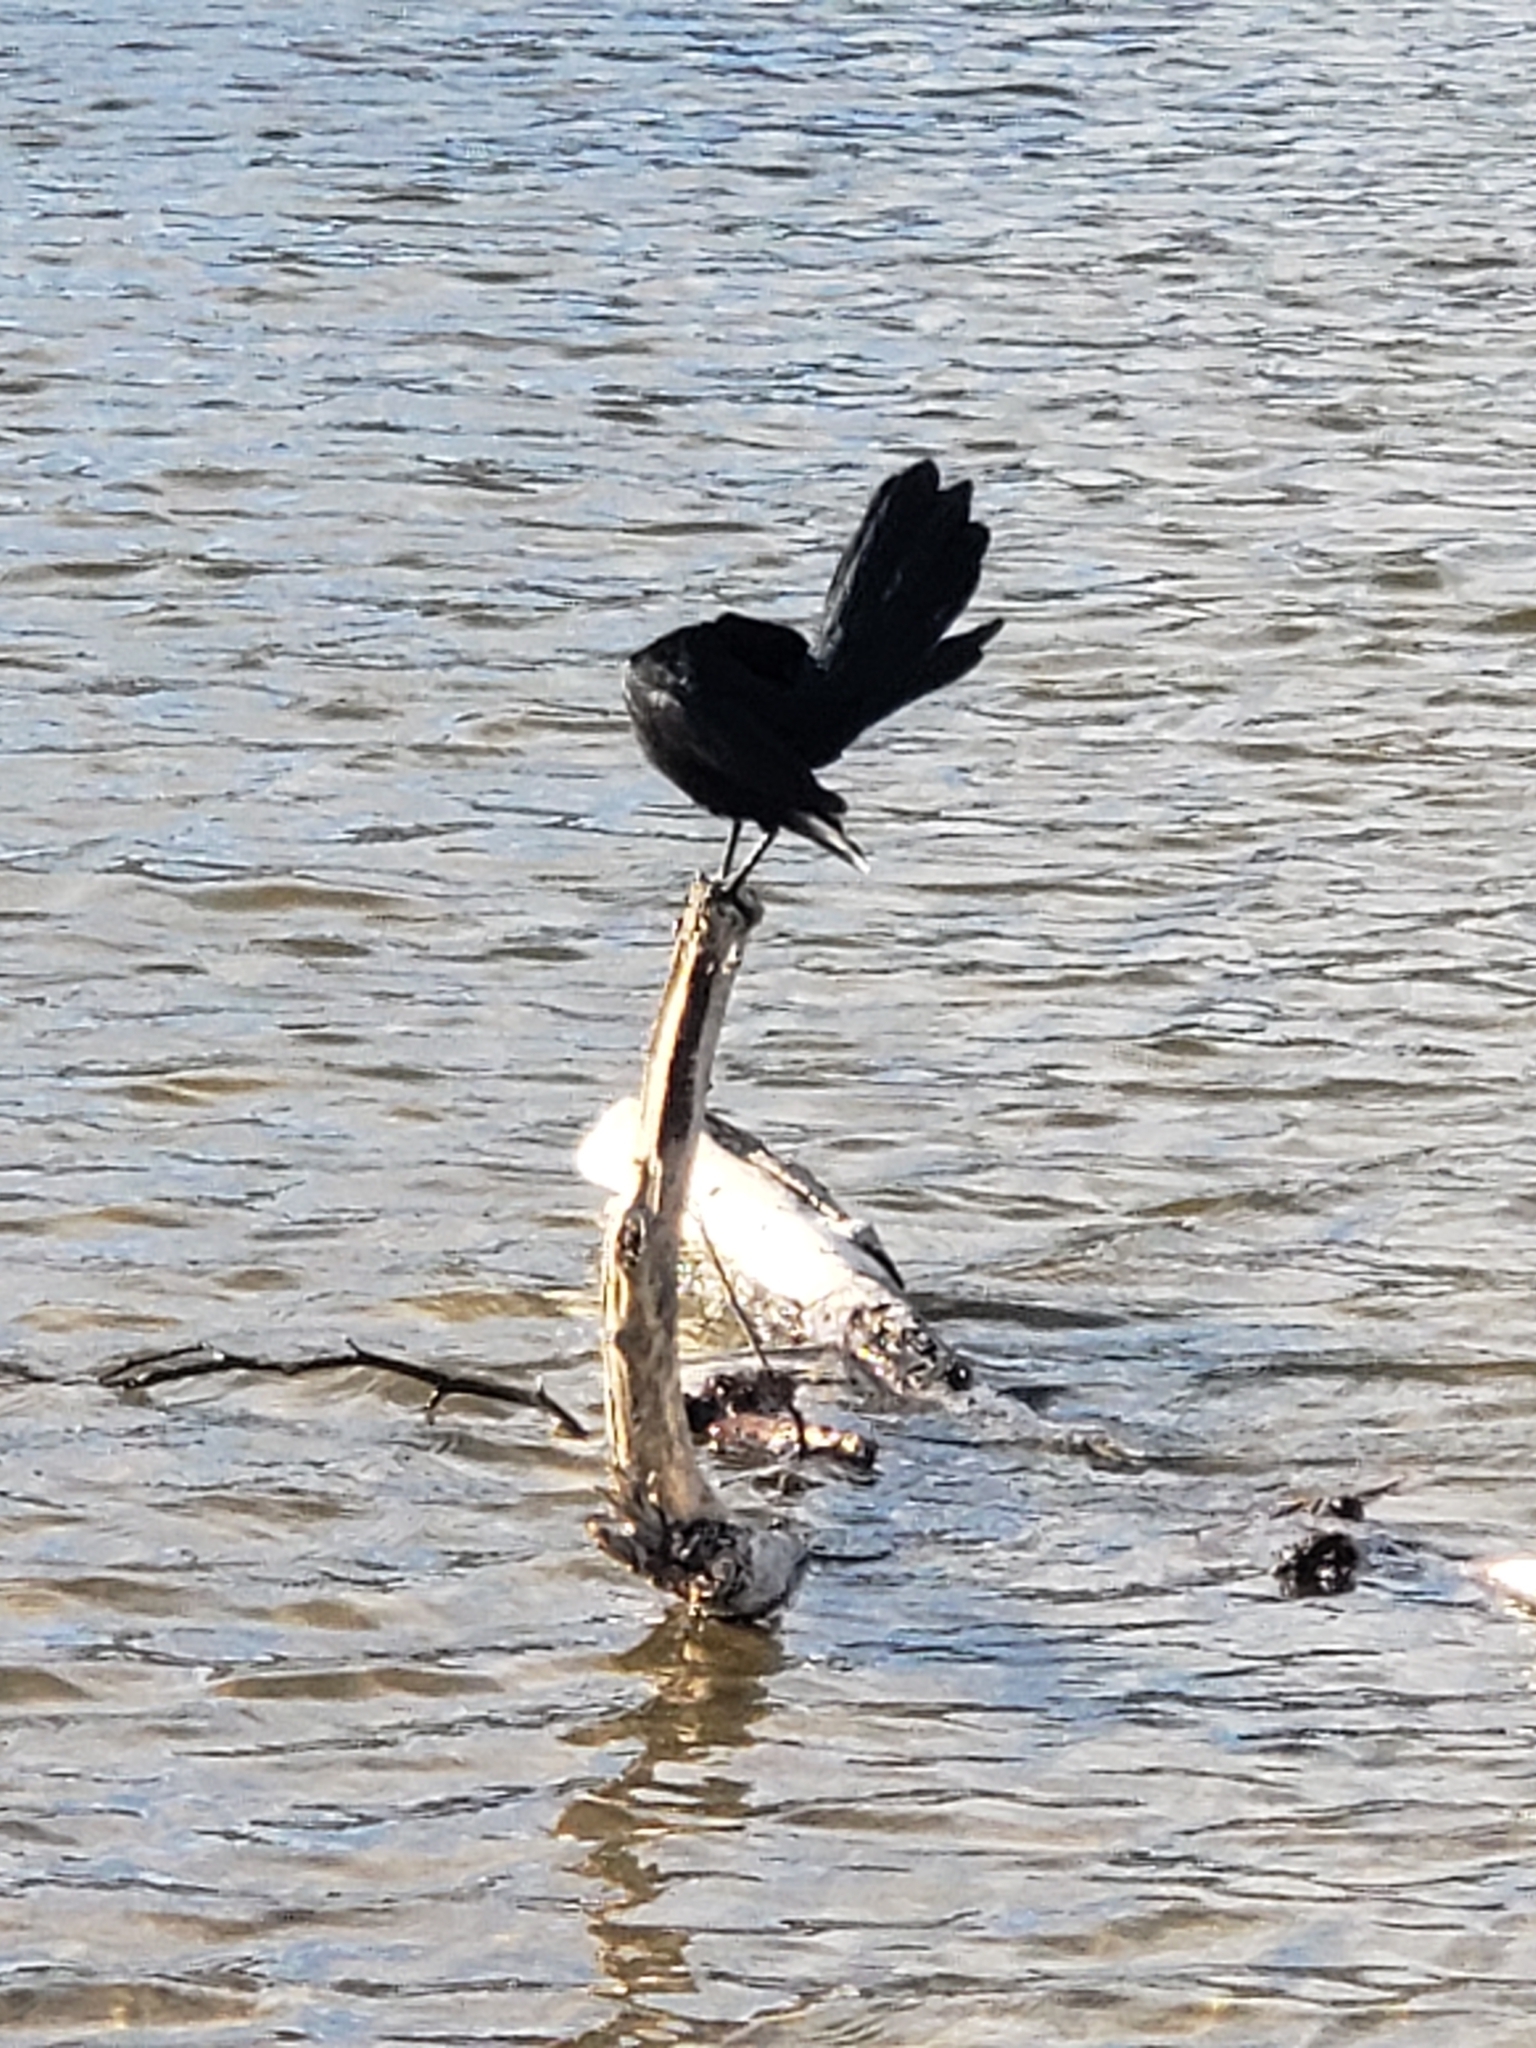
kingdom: Animalia
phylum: Chordata
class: Aves
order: Passeriformes
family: Icteridae
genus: Quiscalus
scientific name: Quiscalus mexicanus
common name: Great-tailed grackle
